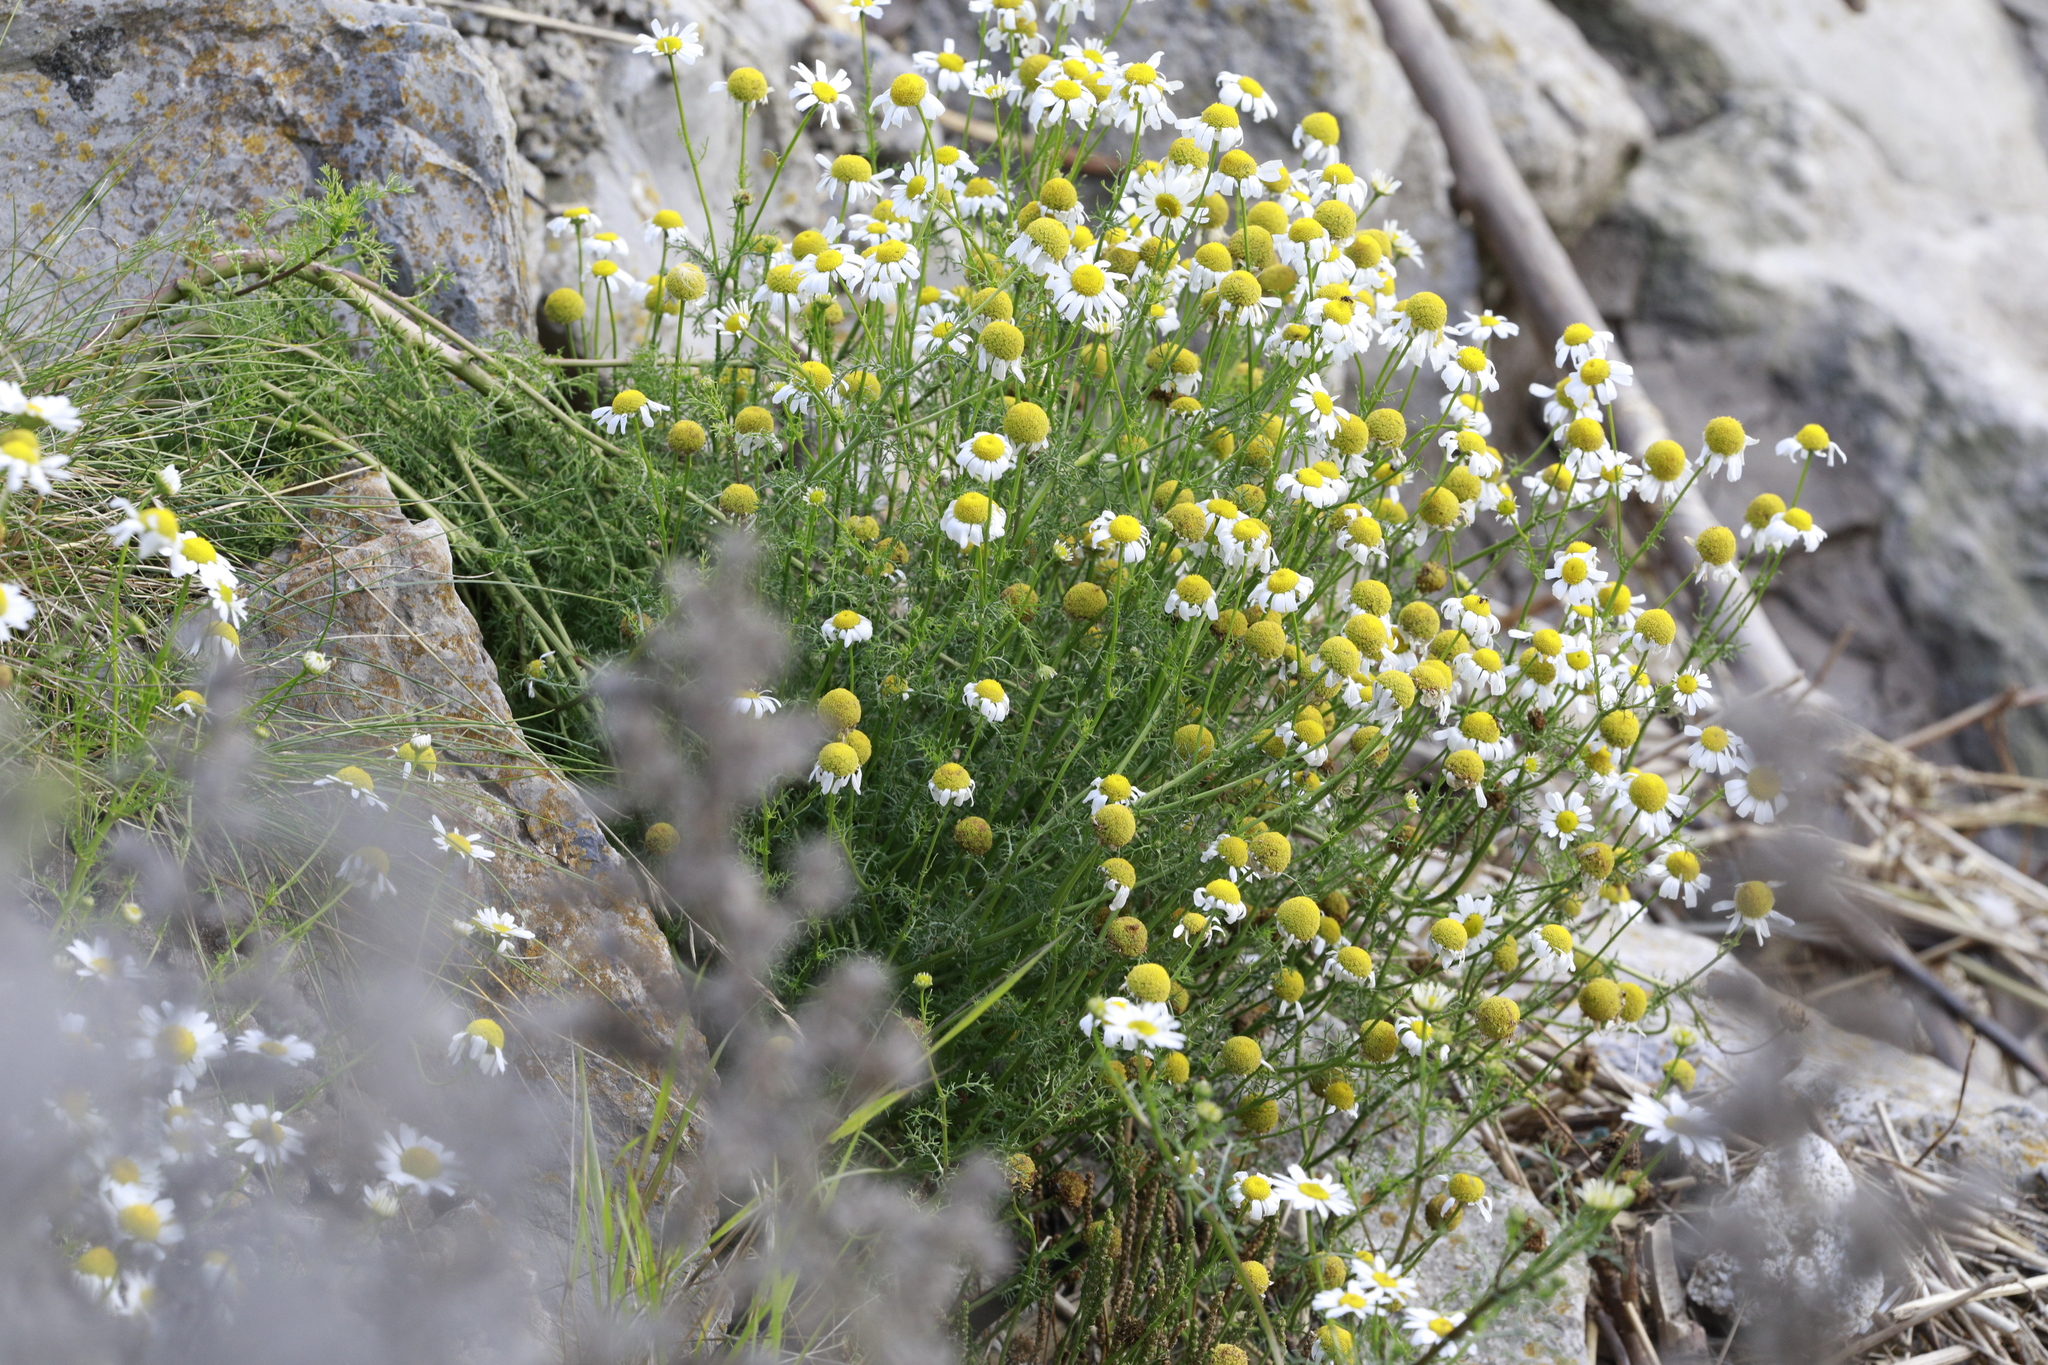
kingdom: Plantae
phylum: Tracheophyta
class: Magnoliopsida
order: Asterales
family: Asteraceae
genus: Tripleurospermum
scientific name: Tripleurospermum maritimum
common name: Sea mayweed
